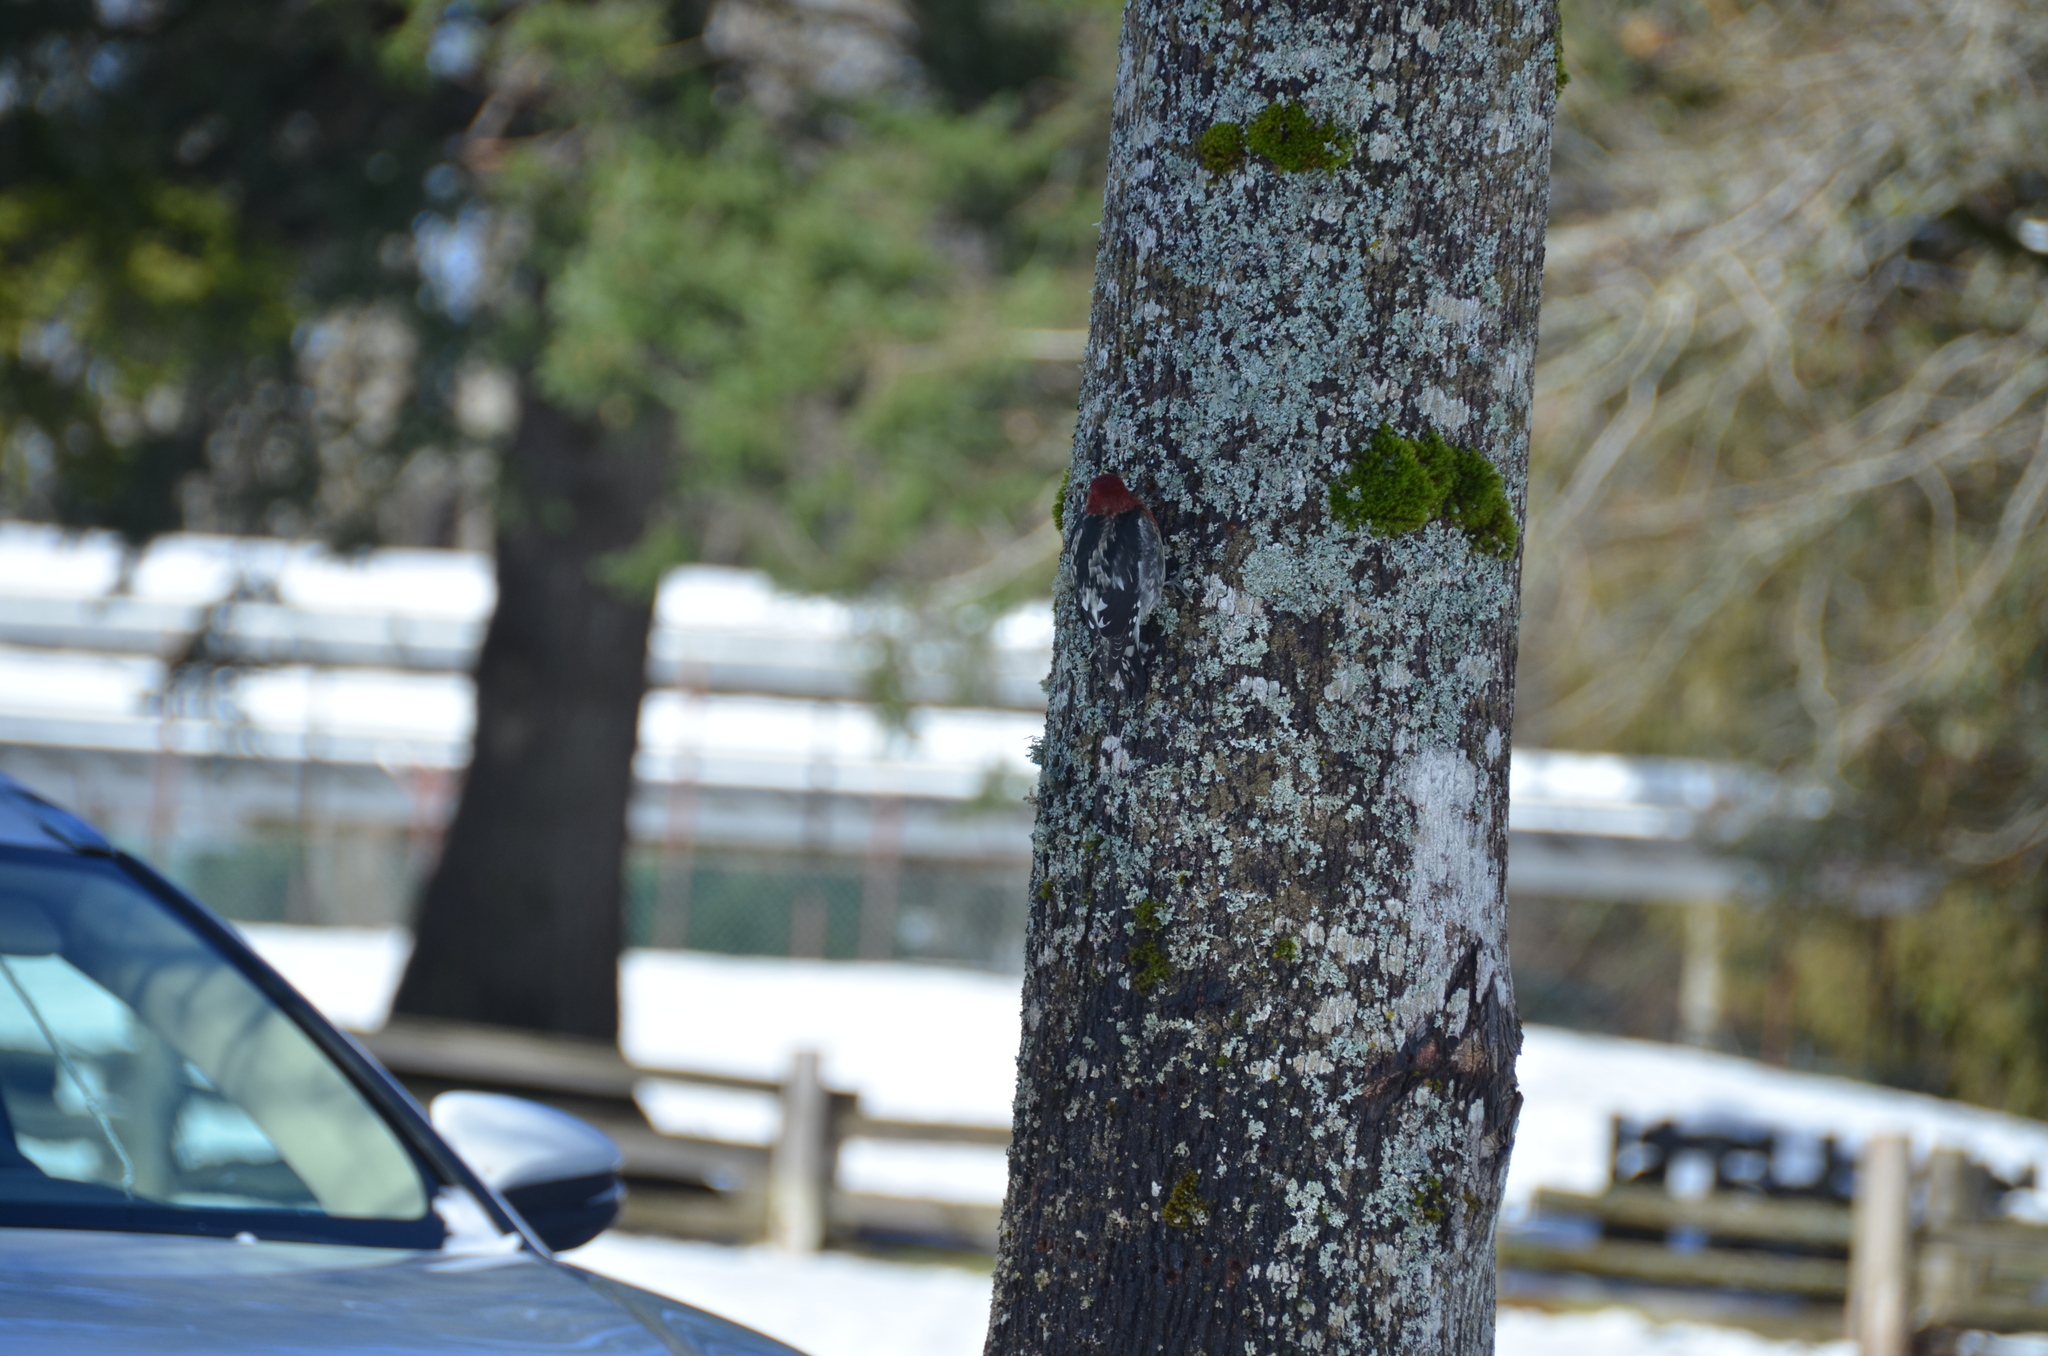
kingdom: Animalia
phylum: Chordata
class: Aves
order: Piciformes
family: Picidae
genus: Sphyrapicus
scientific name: Sphyrapicus ruber
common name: Red-breasted sapsucker
